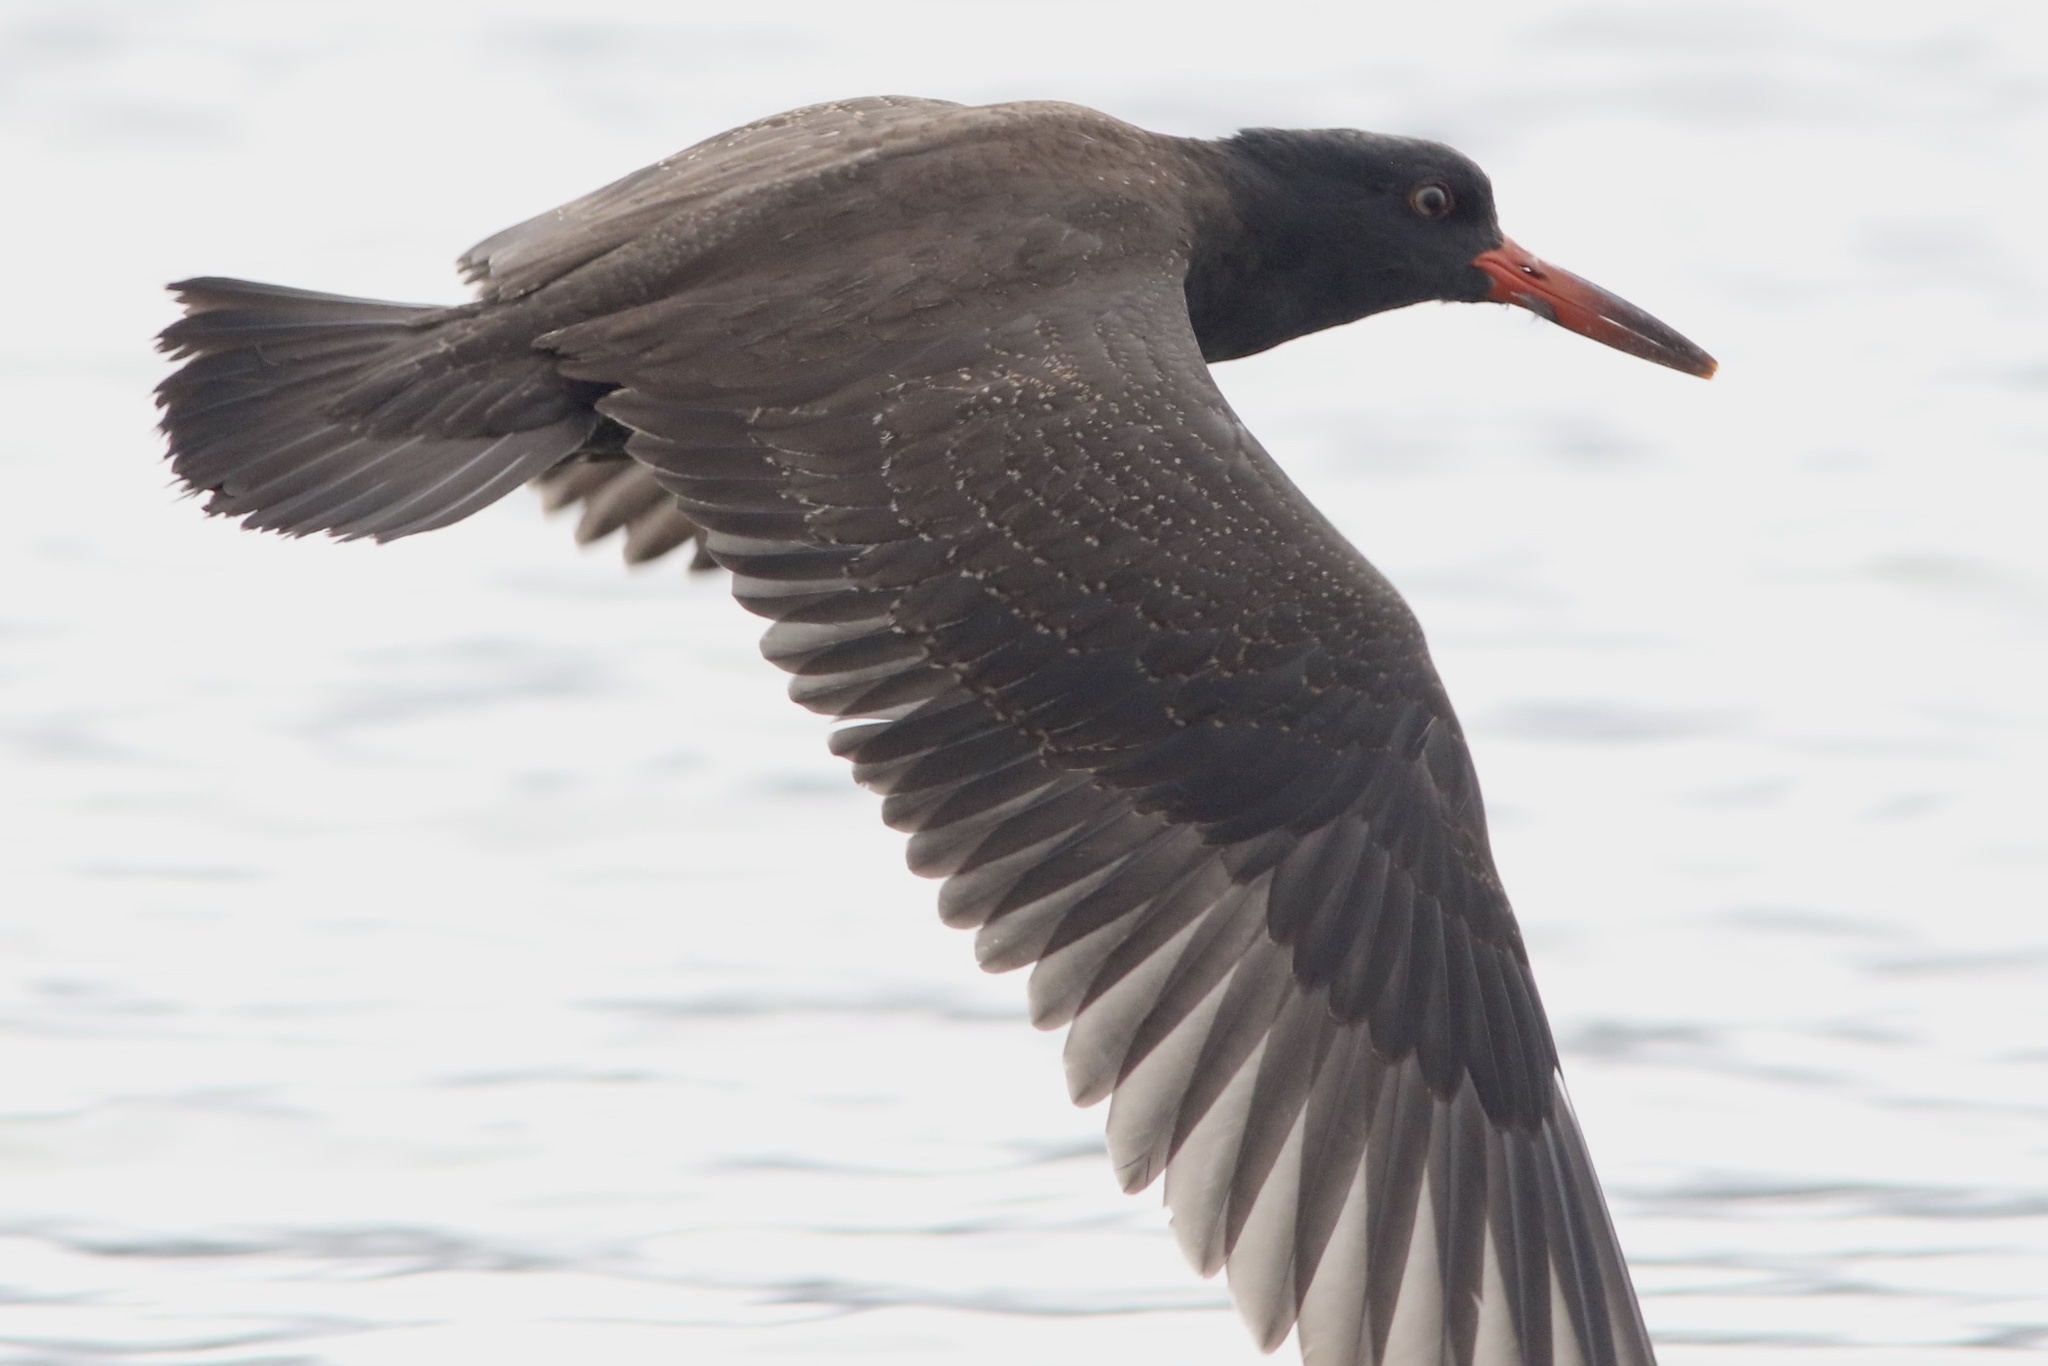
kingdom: Animalia
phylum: Chordata
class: Aves
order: Charadriiformes
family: Haematopodidae
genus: Haematopus
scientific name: Haematopus bachmani
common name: Black oystercatcher
